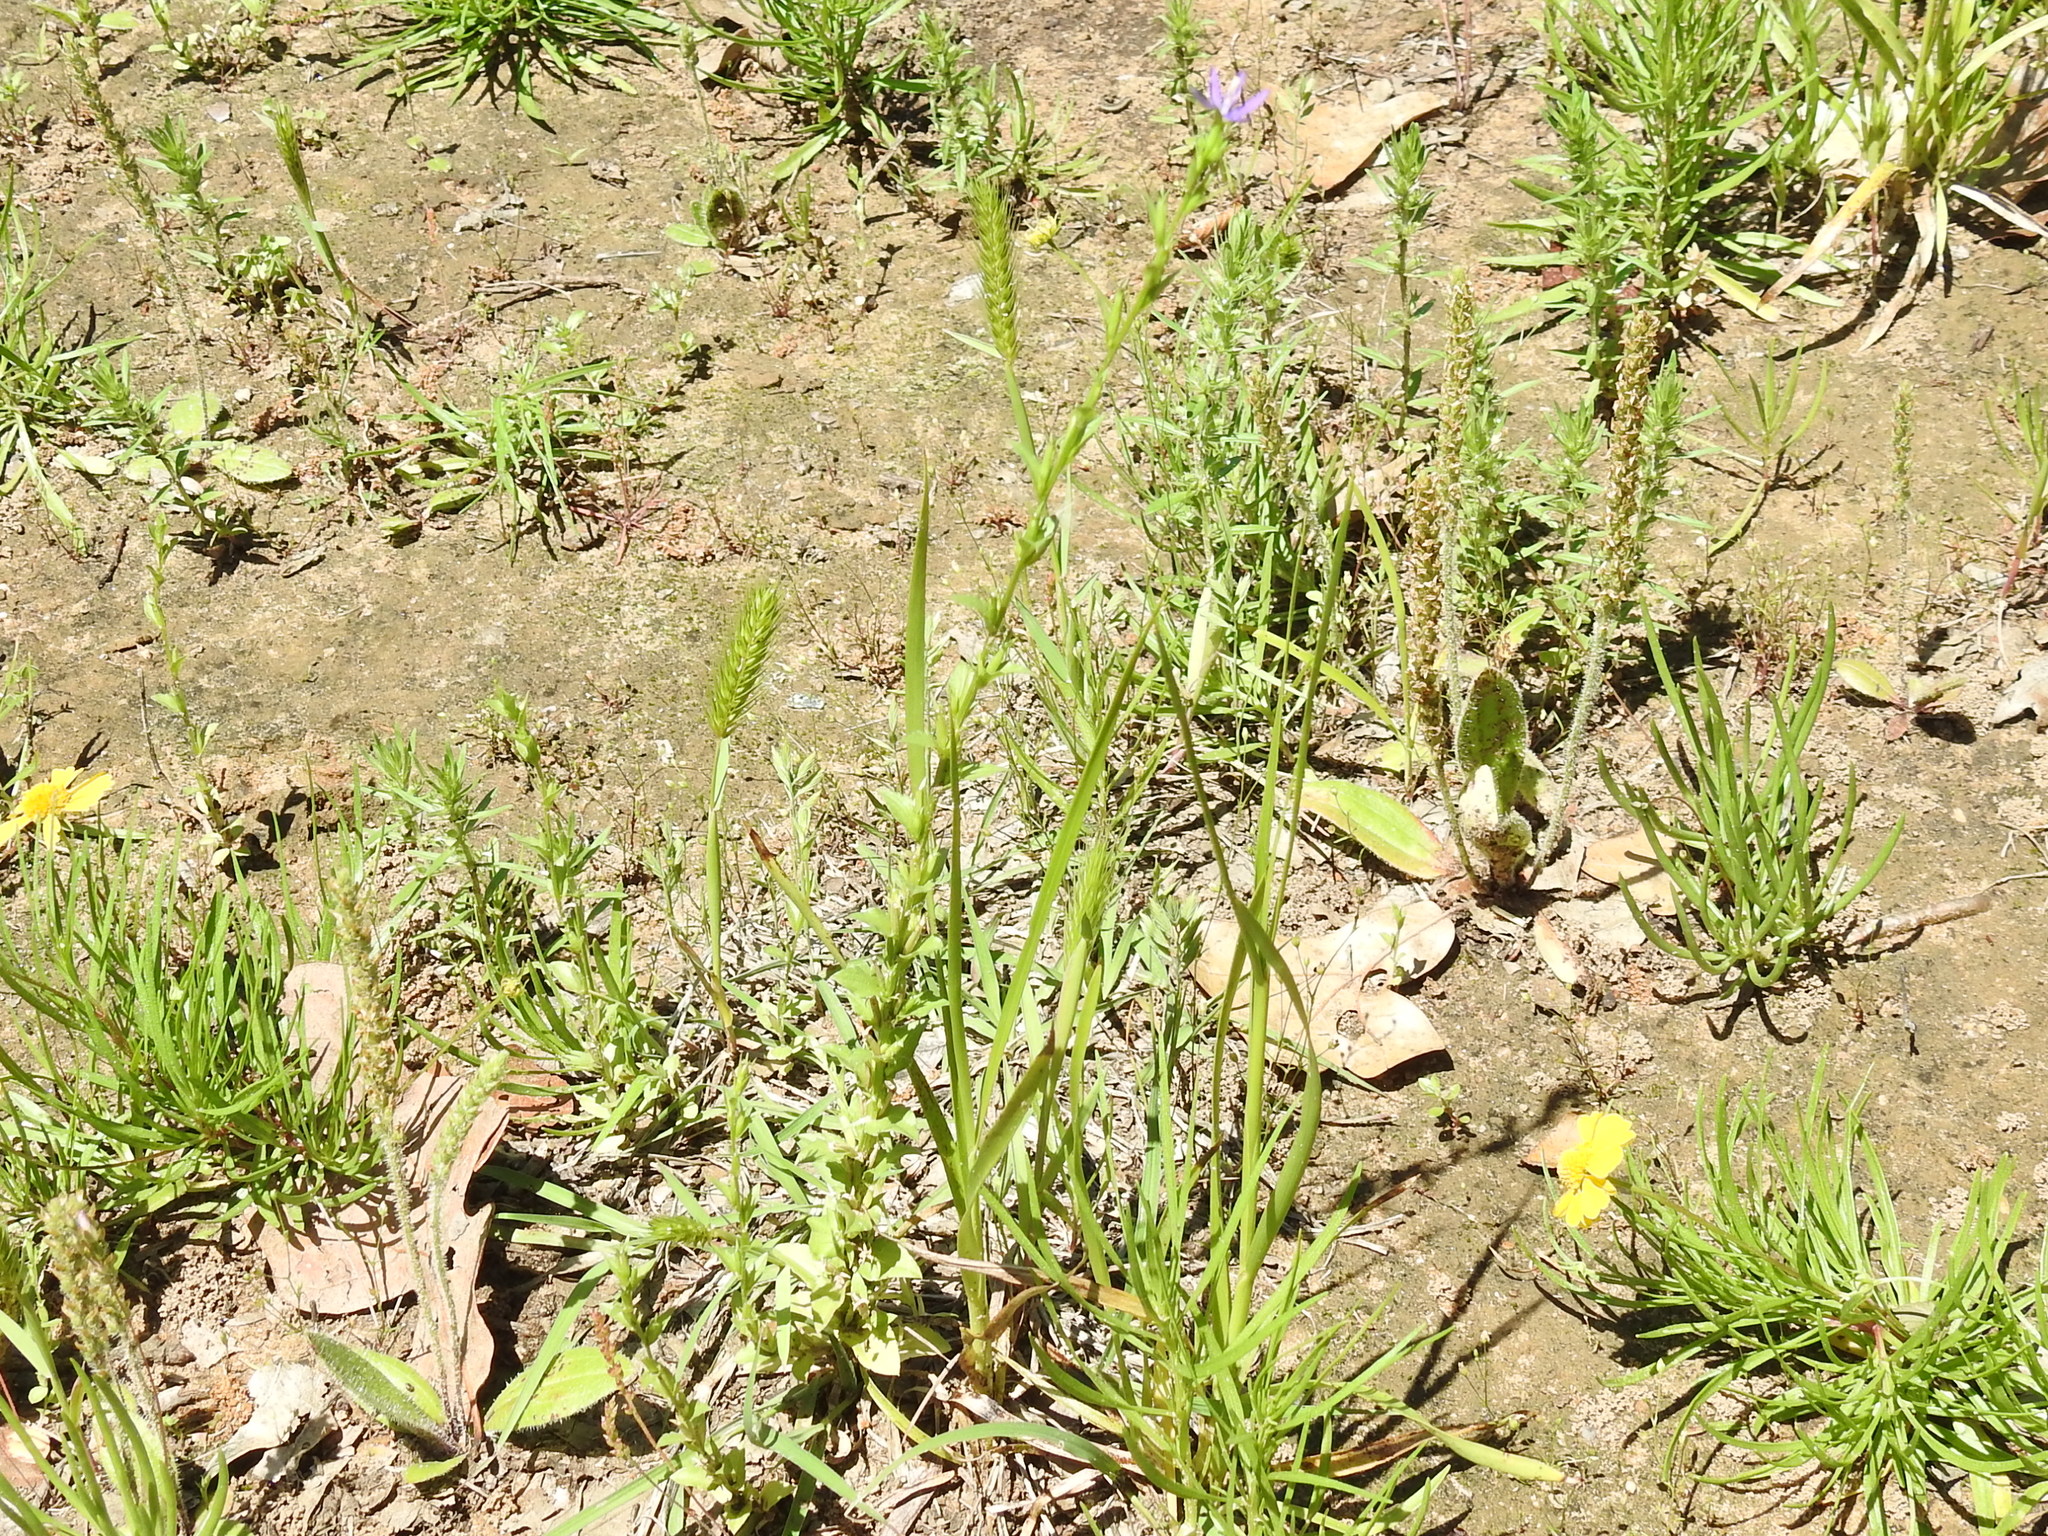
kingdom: Plantae
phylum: Tracheophyta
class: Magnoliopsida
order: Asterales
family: Campanulaceae
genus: Triodanis
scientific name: Triodanis biflora
